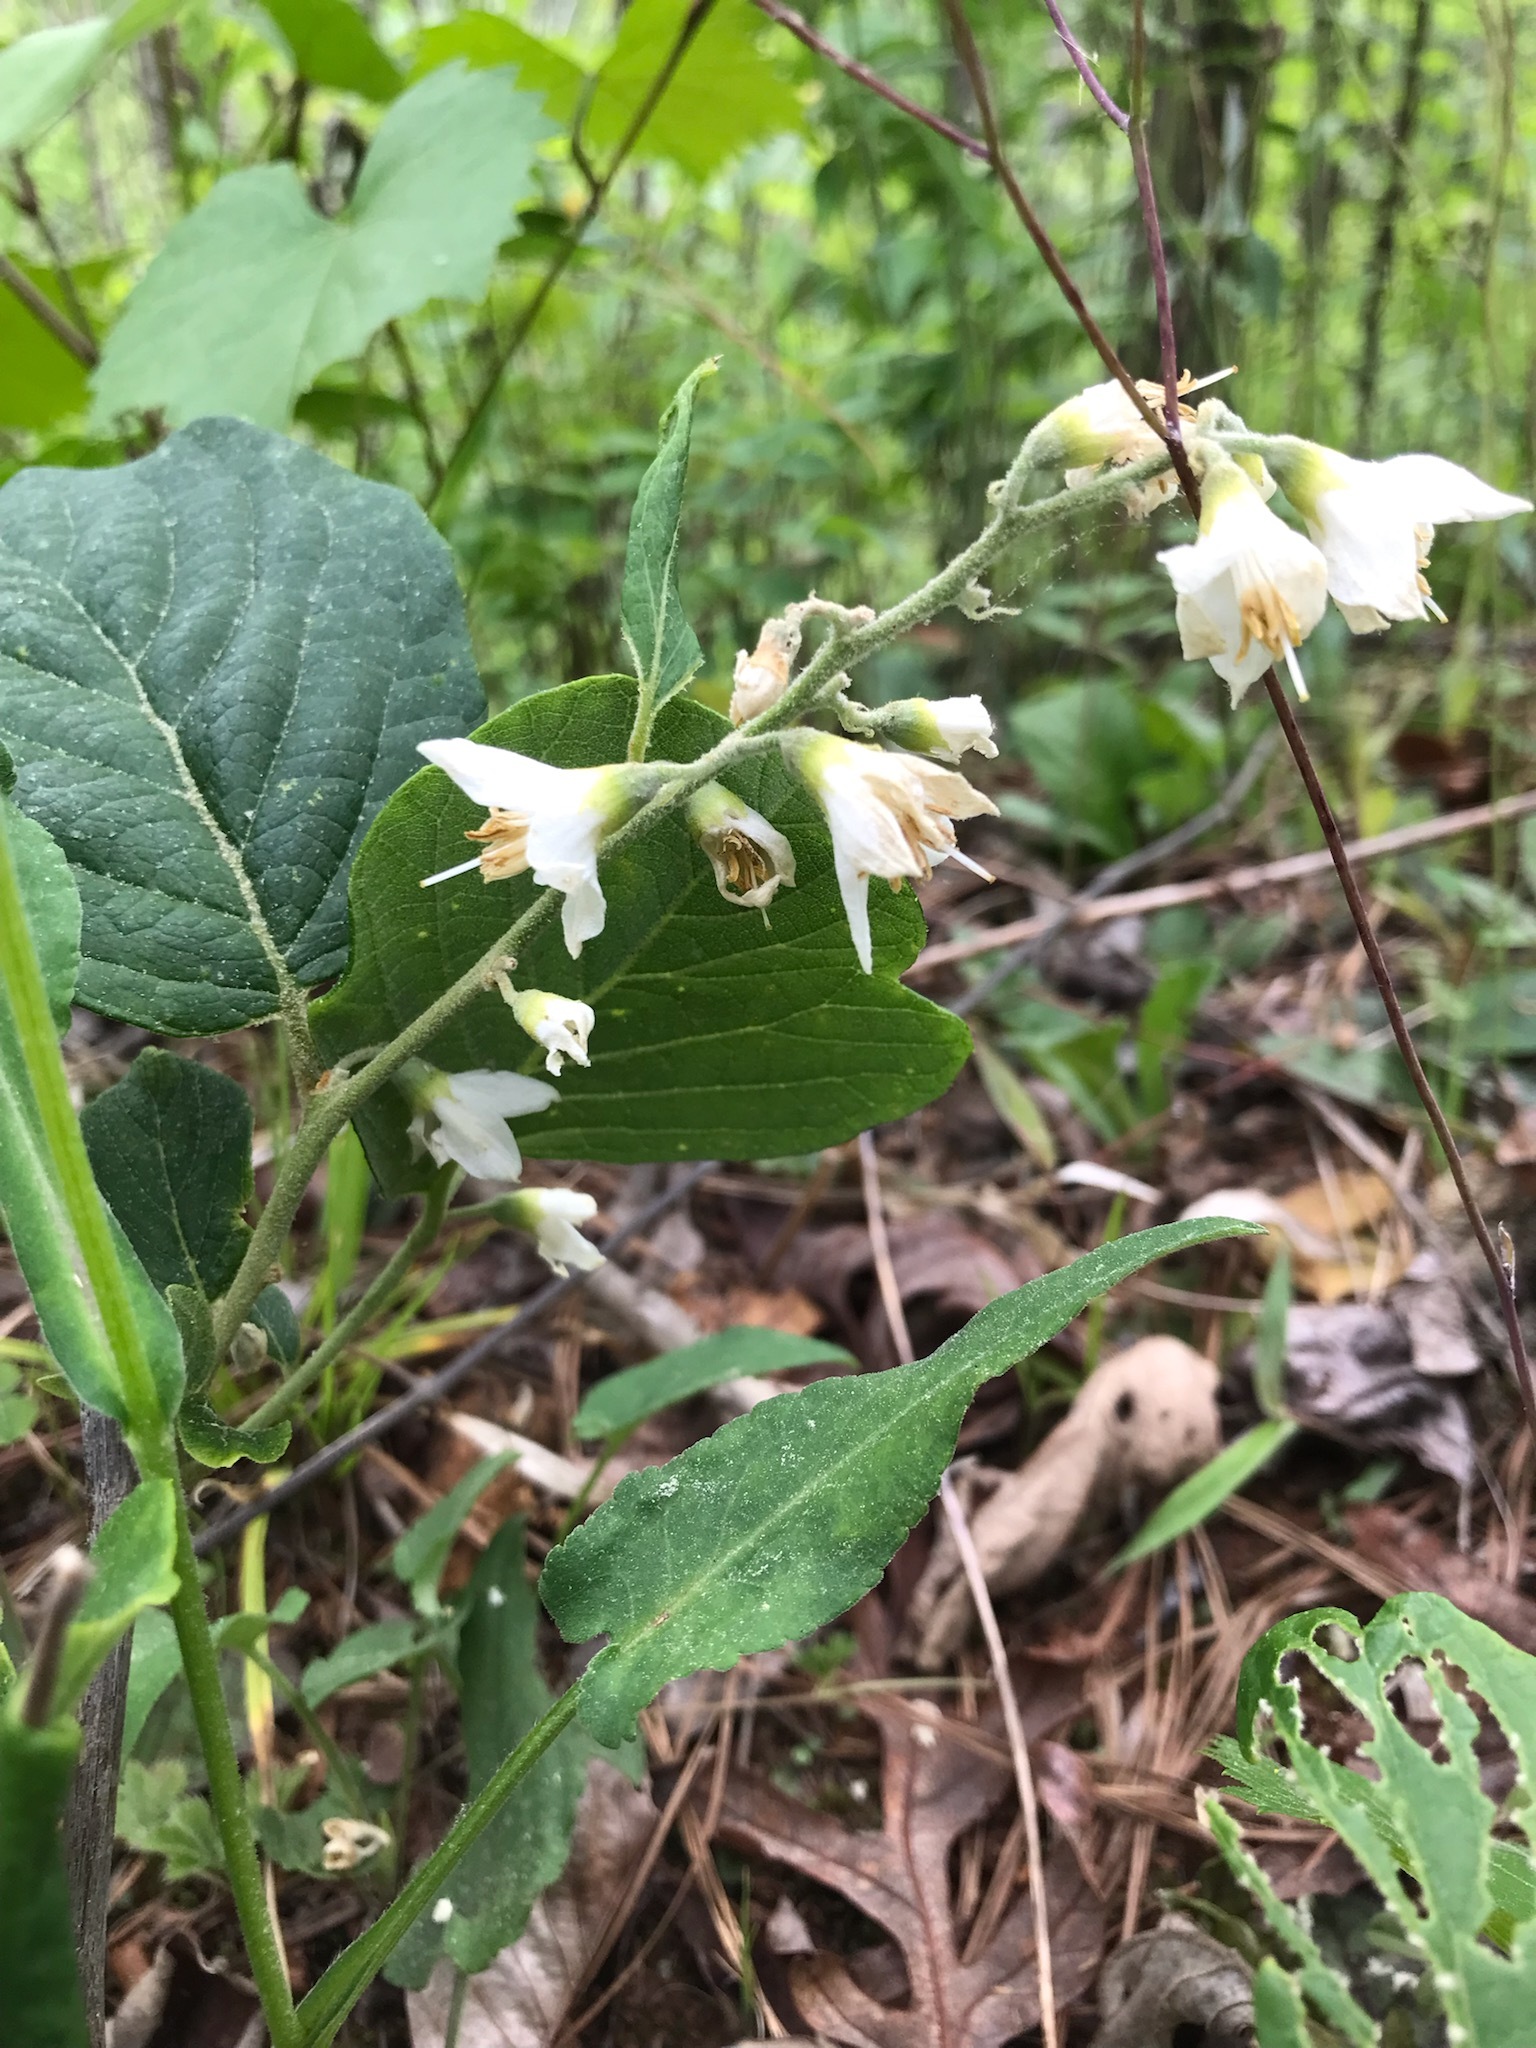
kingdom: Plantae
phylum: Tracheophyta
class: Magnoliopsida
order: Ericales
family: Styracaceae
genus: Styrax
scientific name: Styrax grandifolius
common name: Big-leaf snowbell
